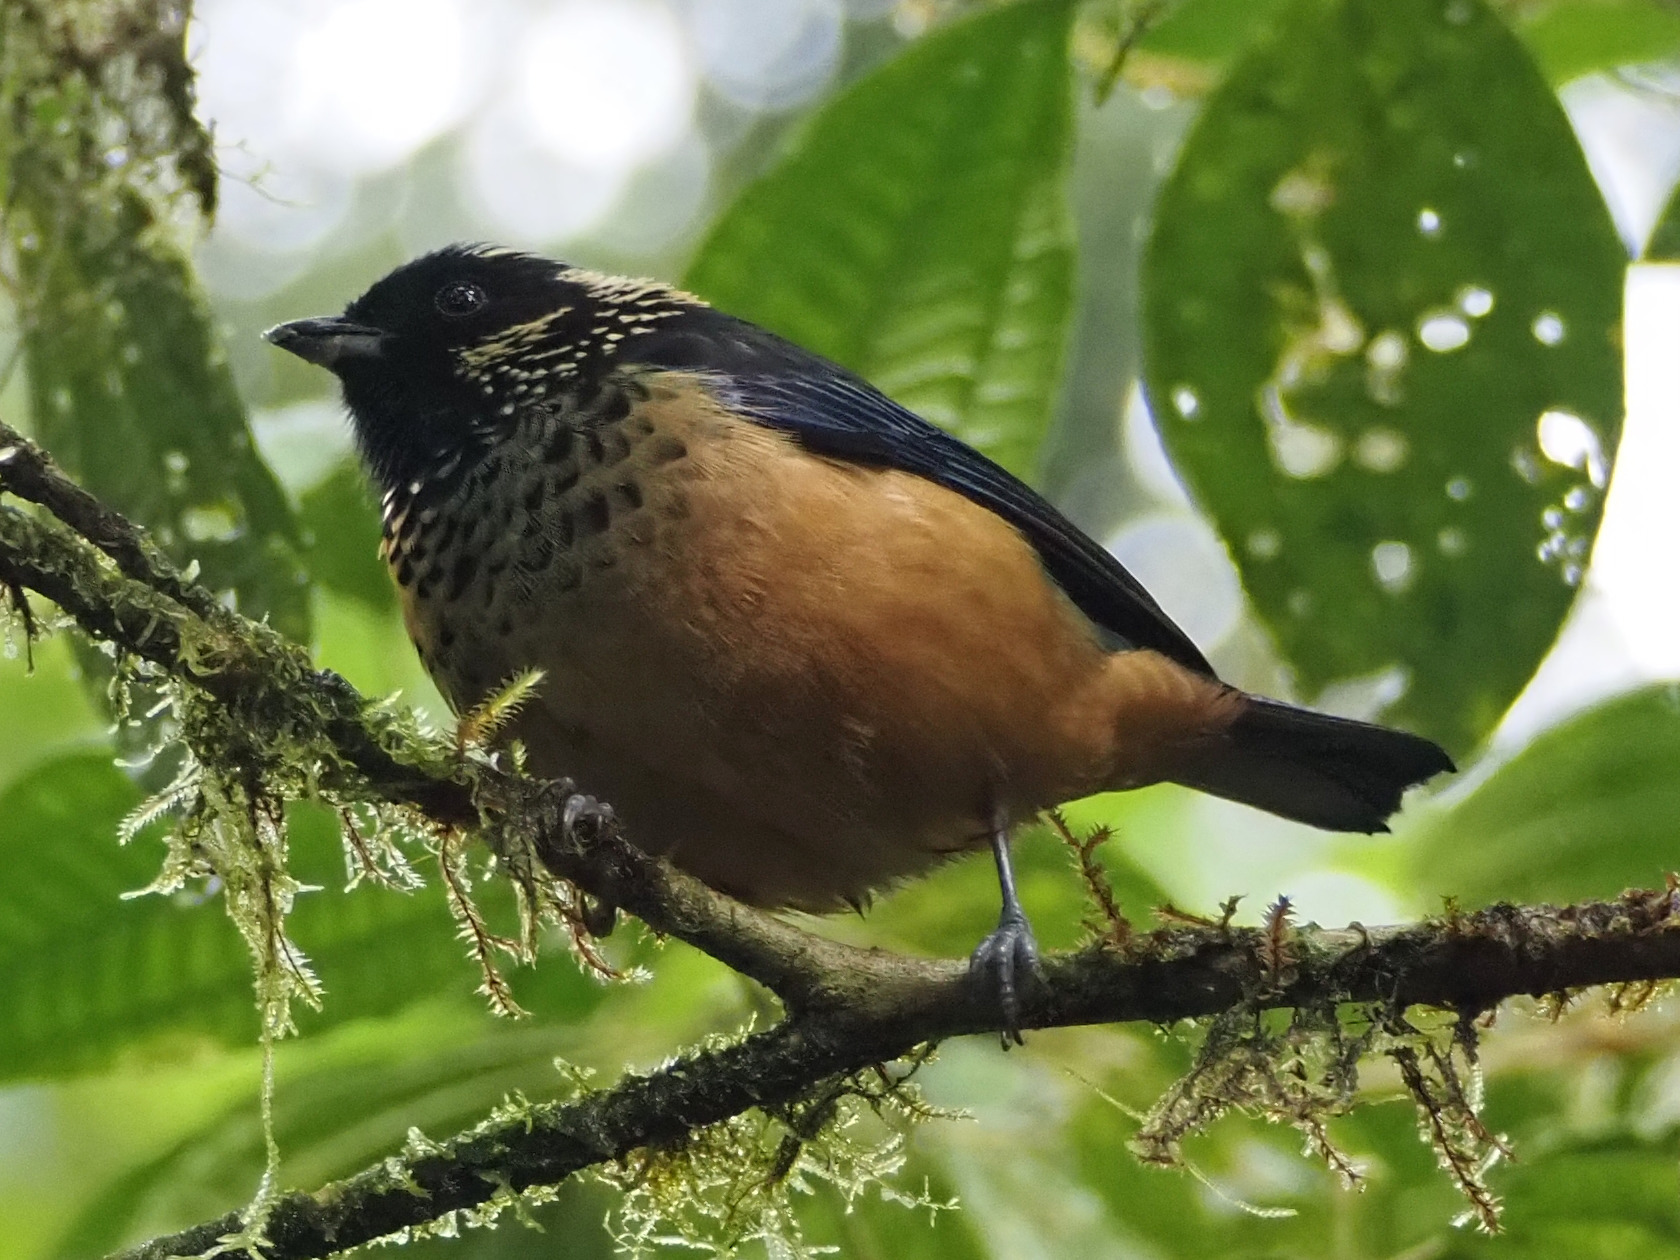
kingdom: Animalia
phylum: Chordata
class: Aves
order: Passeriformes
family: Thraupidae
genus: Tangara
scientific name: Tangara dowii
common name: Spangle-cheeked tanager
